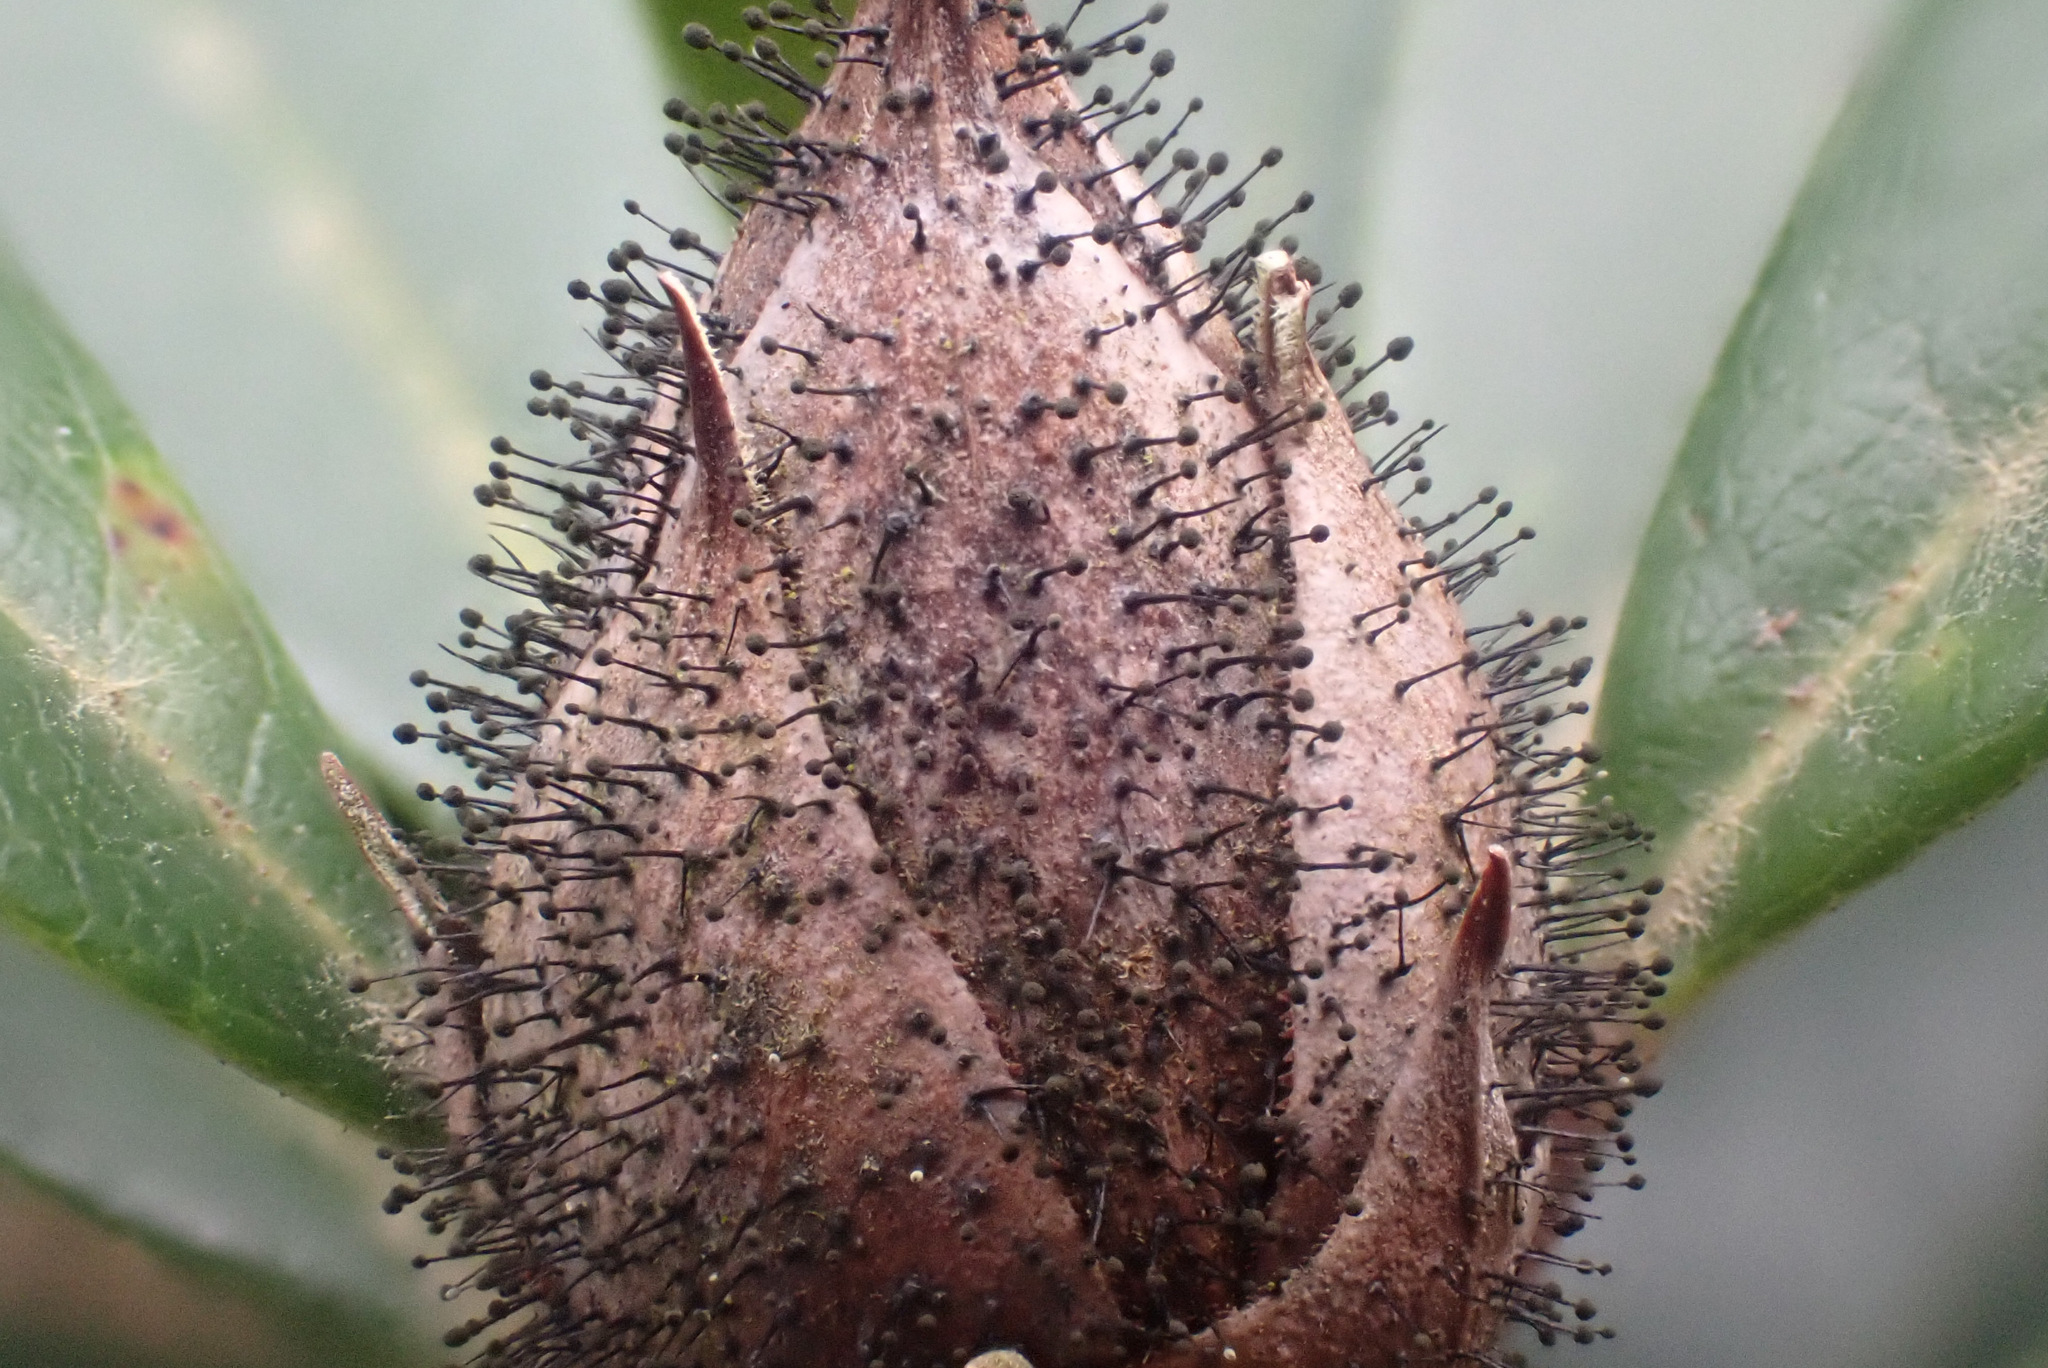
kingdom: Fungi
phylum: Ascomycota
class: Dothideomycetes
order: Pleosporales
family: Melanommataceae
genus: Seifertia
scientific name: Seifertia azaleae
